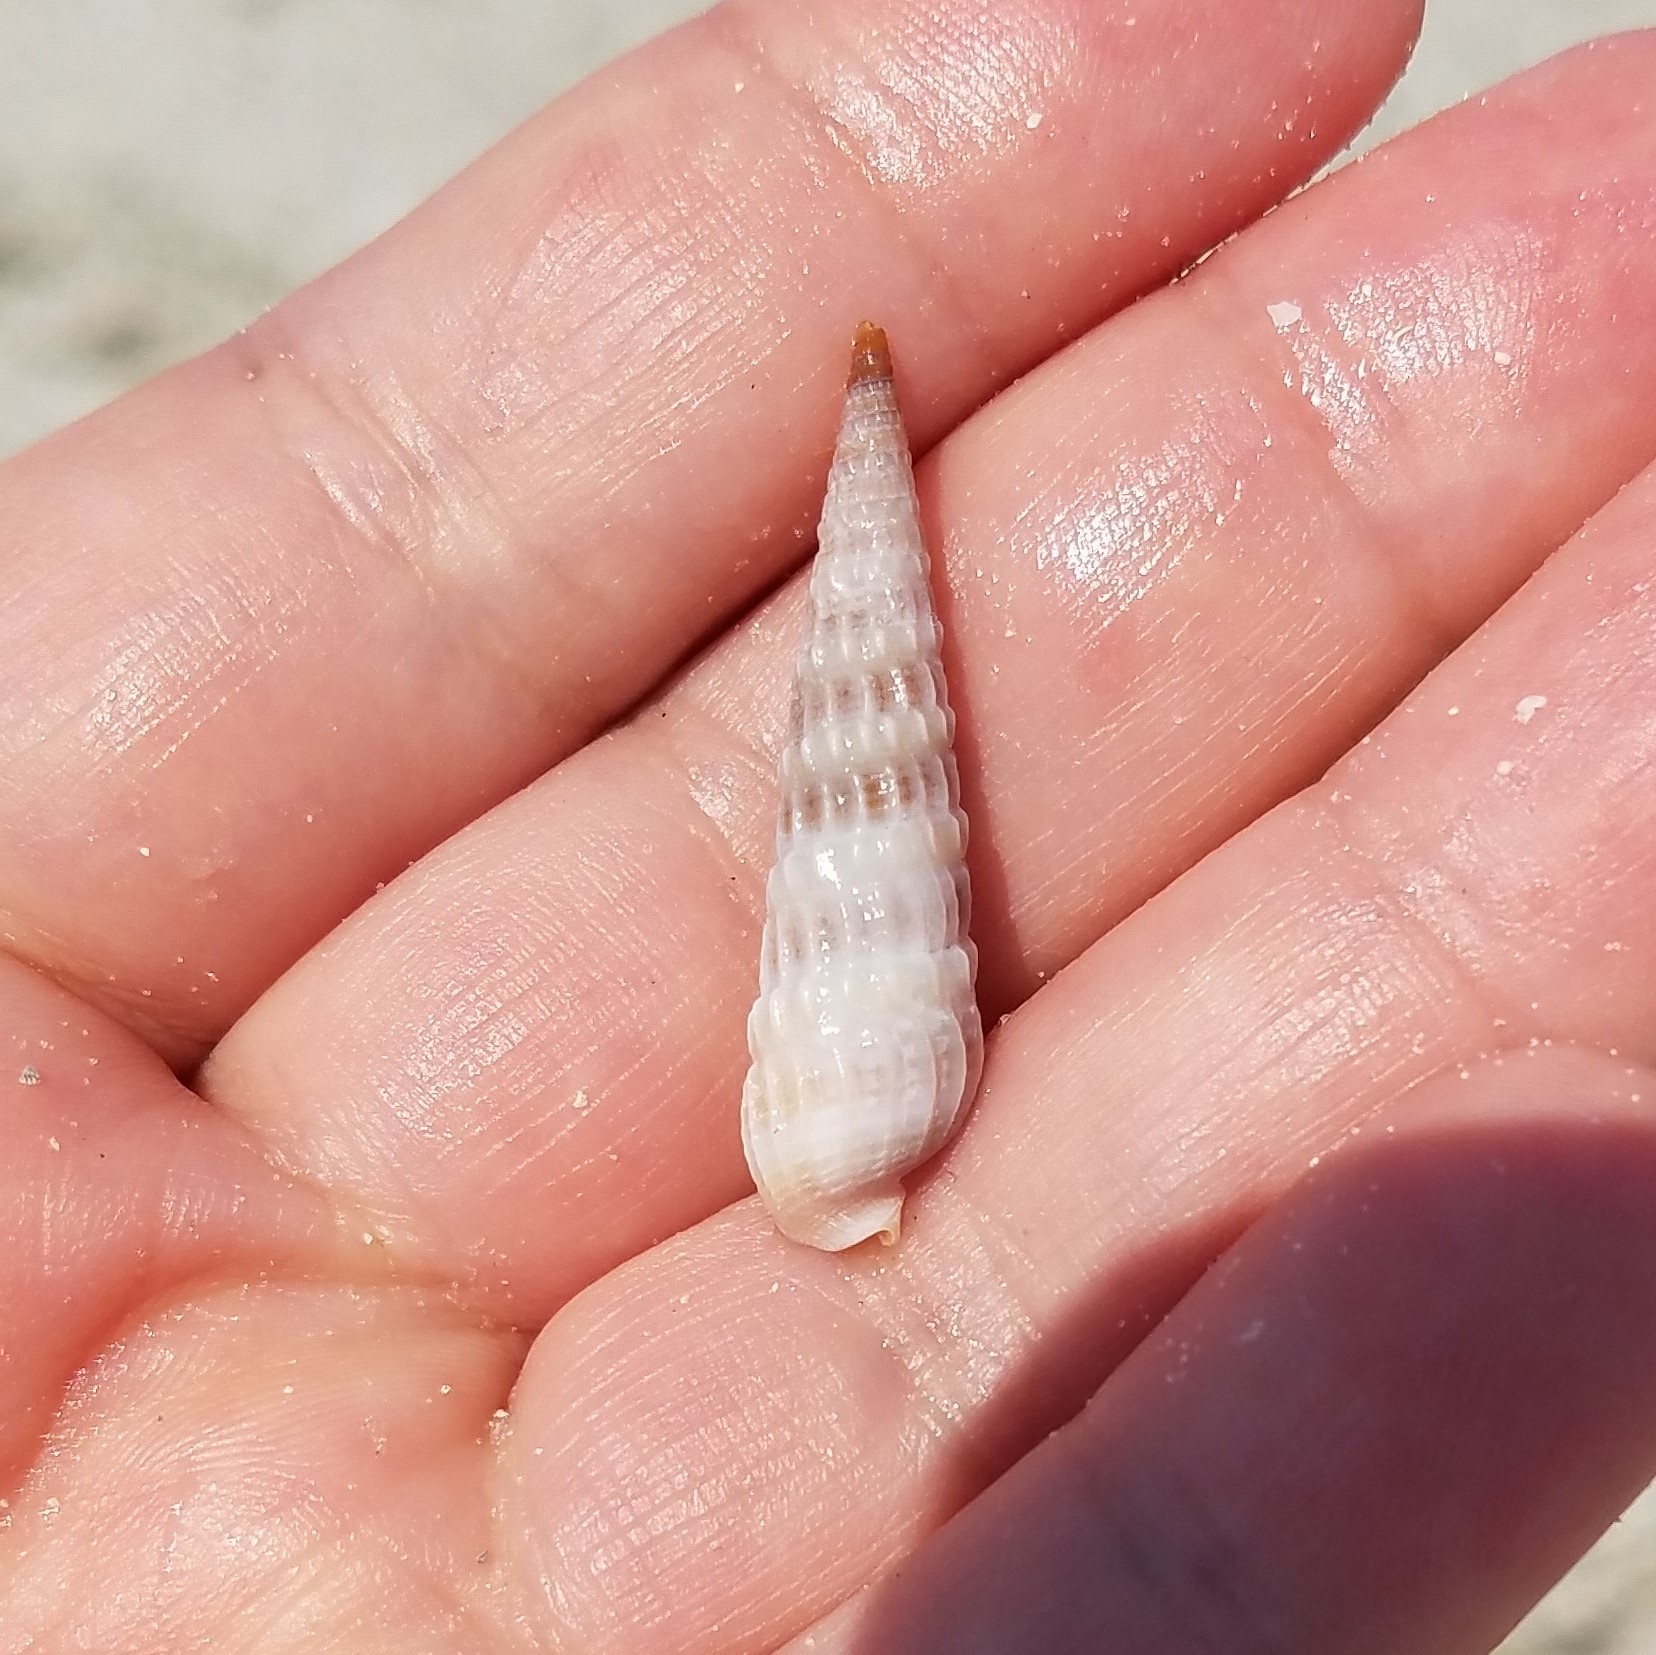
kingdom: Animalia
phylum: Mollusca
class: Gastropoda
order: Neogastropoda
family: Terebridae
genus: Neoterebra
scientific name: Neoterebra dislocata
